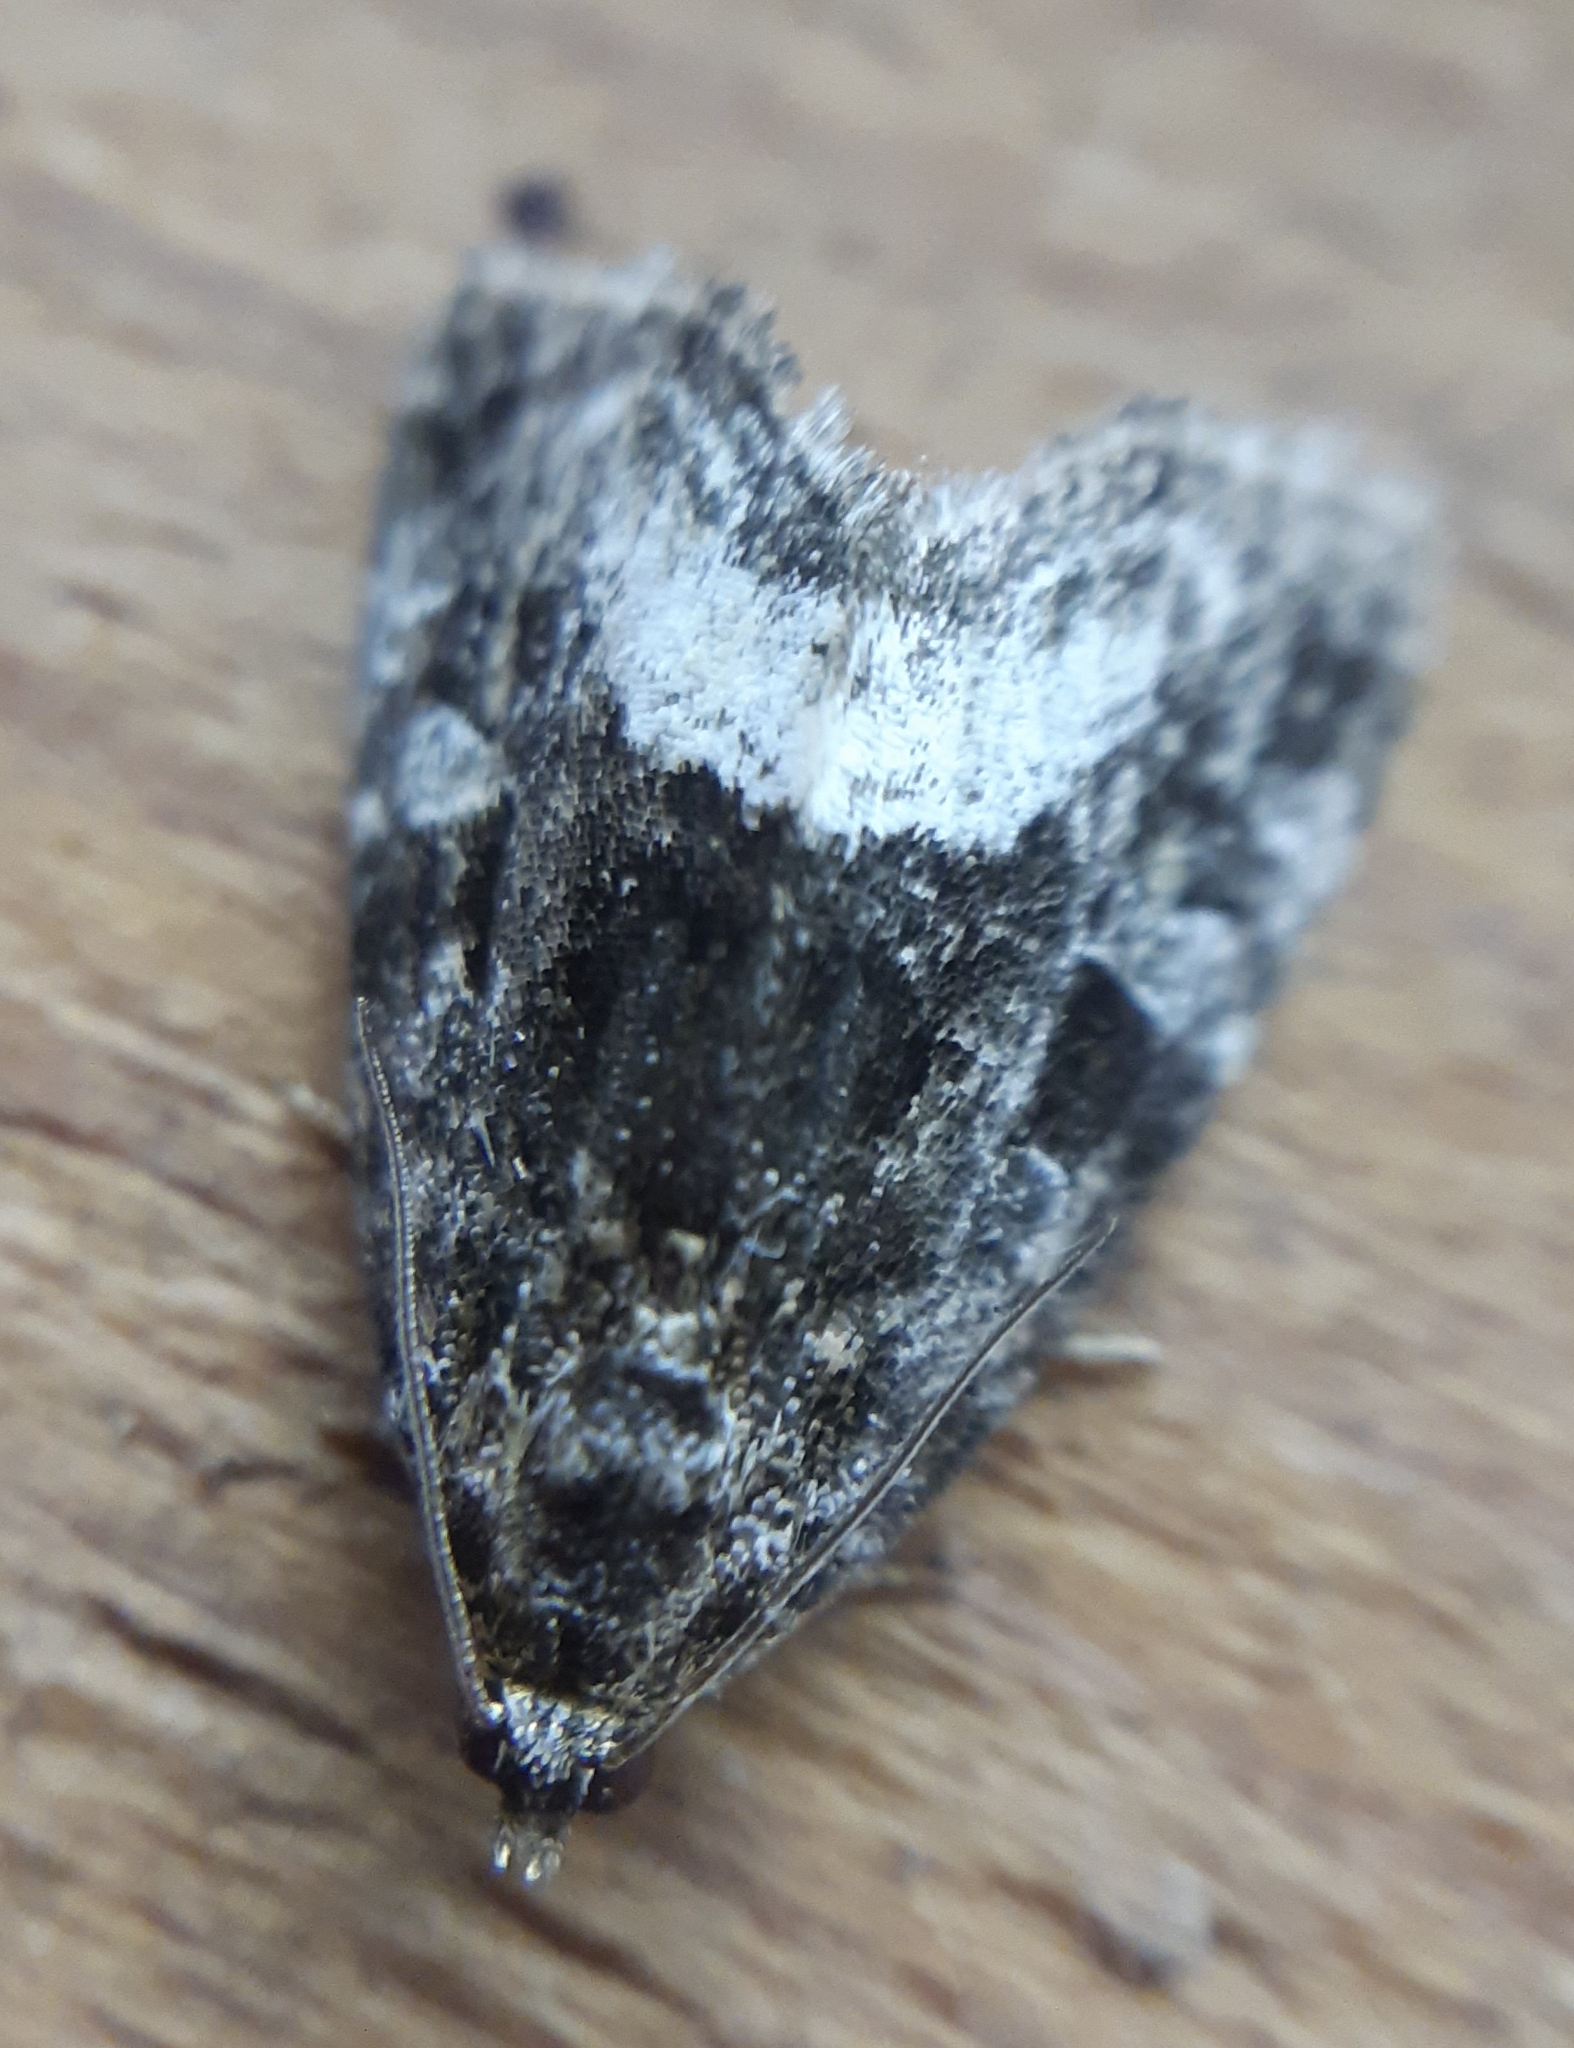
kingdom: Animalia
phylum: Arthropoda
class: Insecta
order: Lepidoptera
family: Noctuidae
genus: Deltote
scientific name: Deltote pygarga
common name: Marbled white spot
